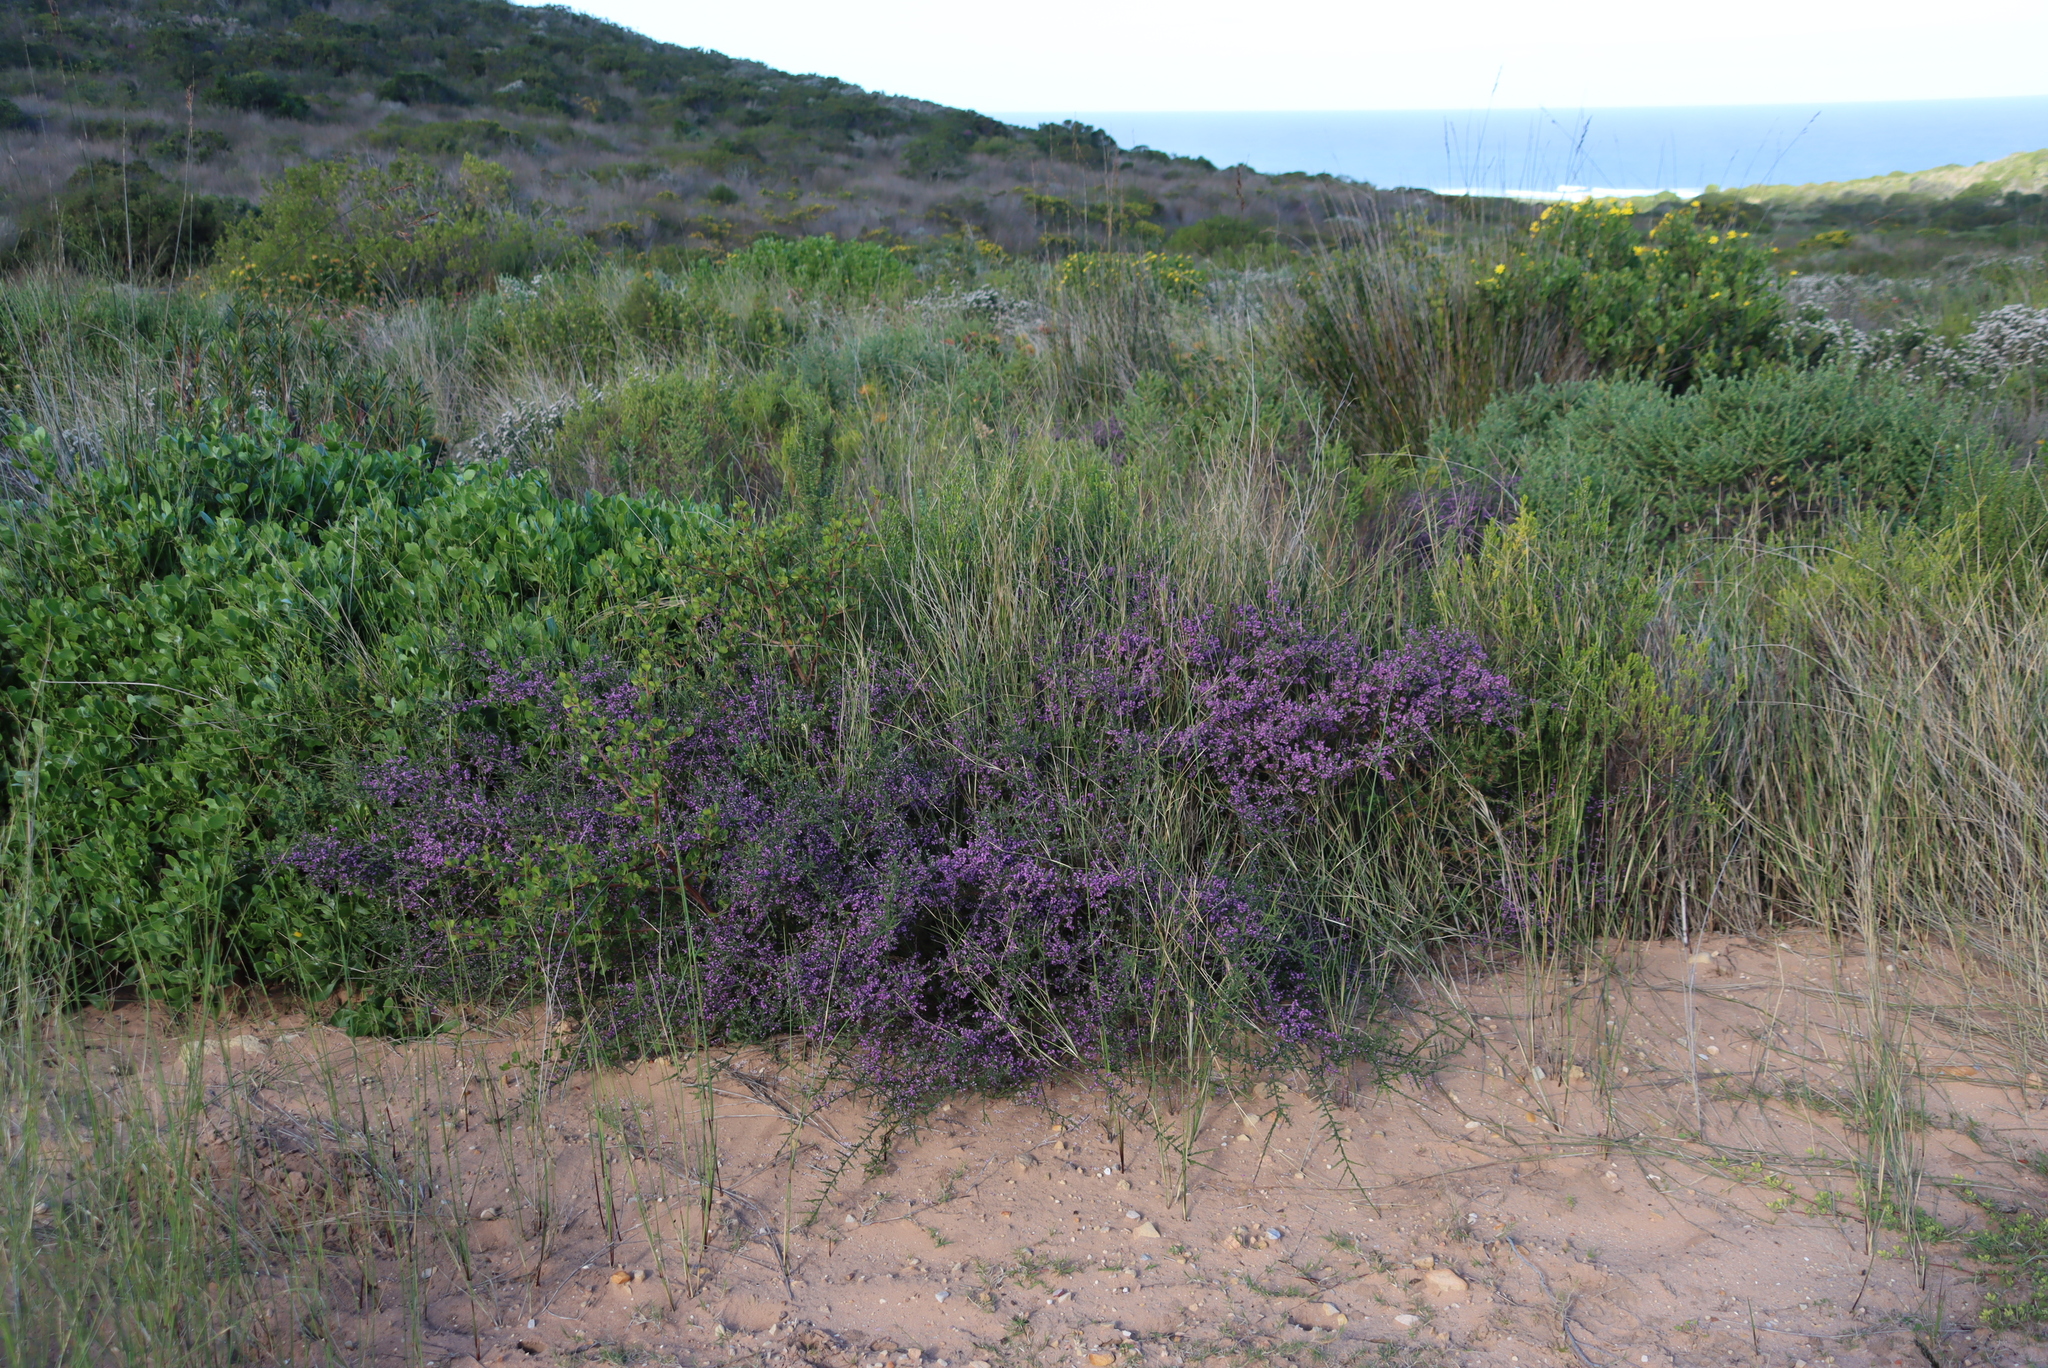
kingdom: Plantae
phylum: Tracheophyta
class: Magnoliopsida
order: Fabales
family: Polygalaceae
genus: Muraltia
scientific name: Muraltia spinosa
